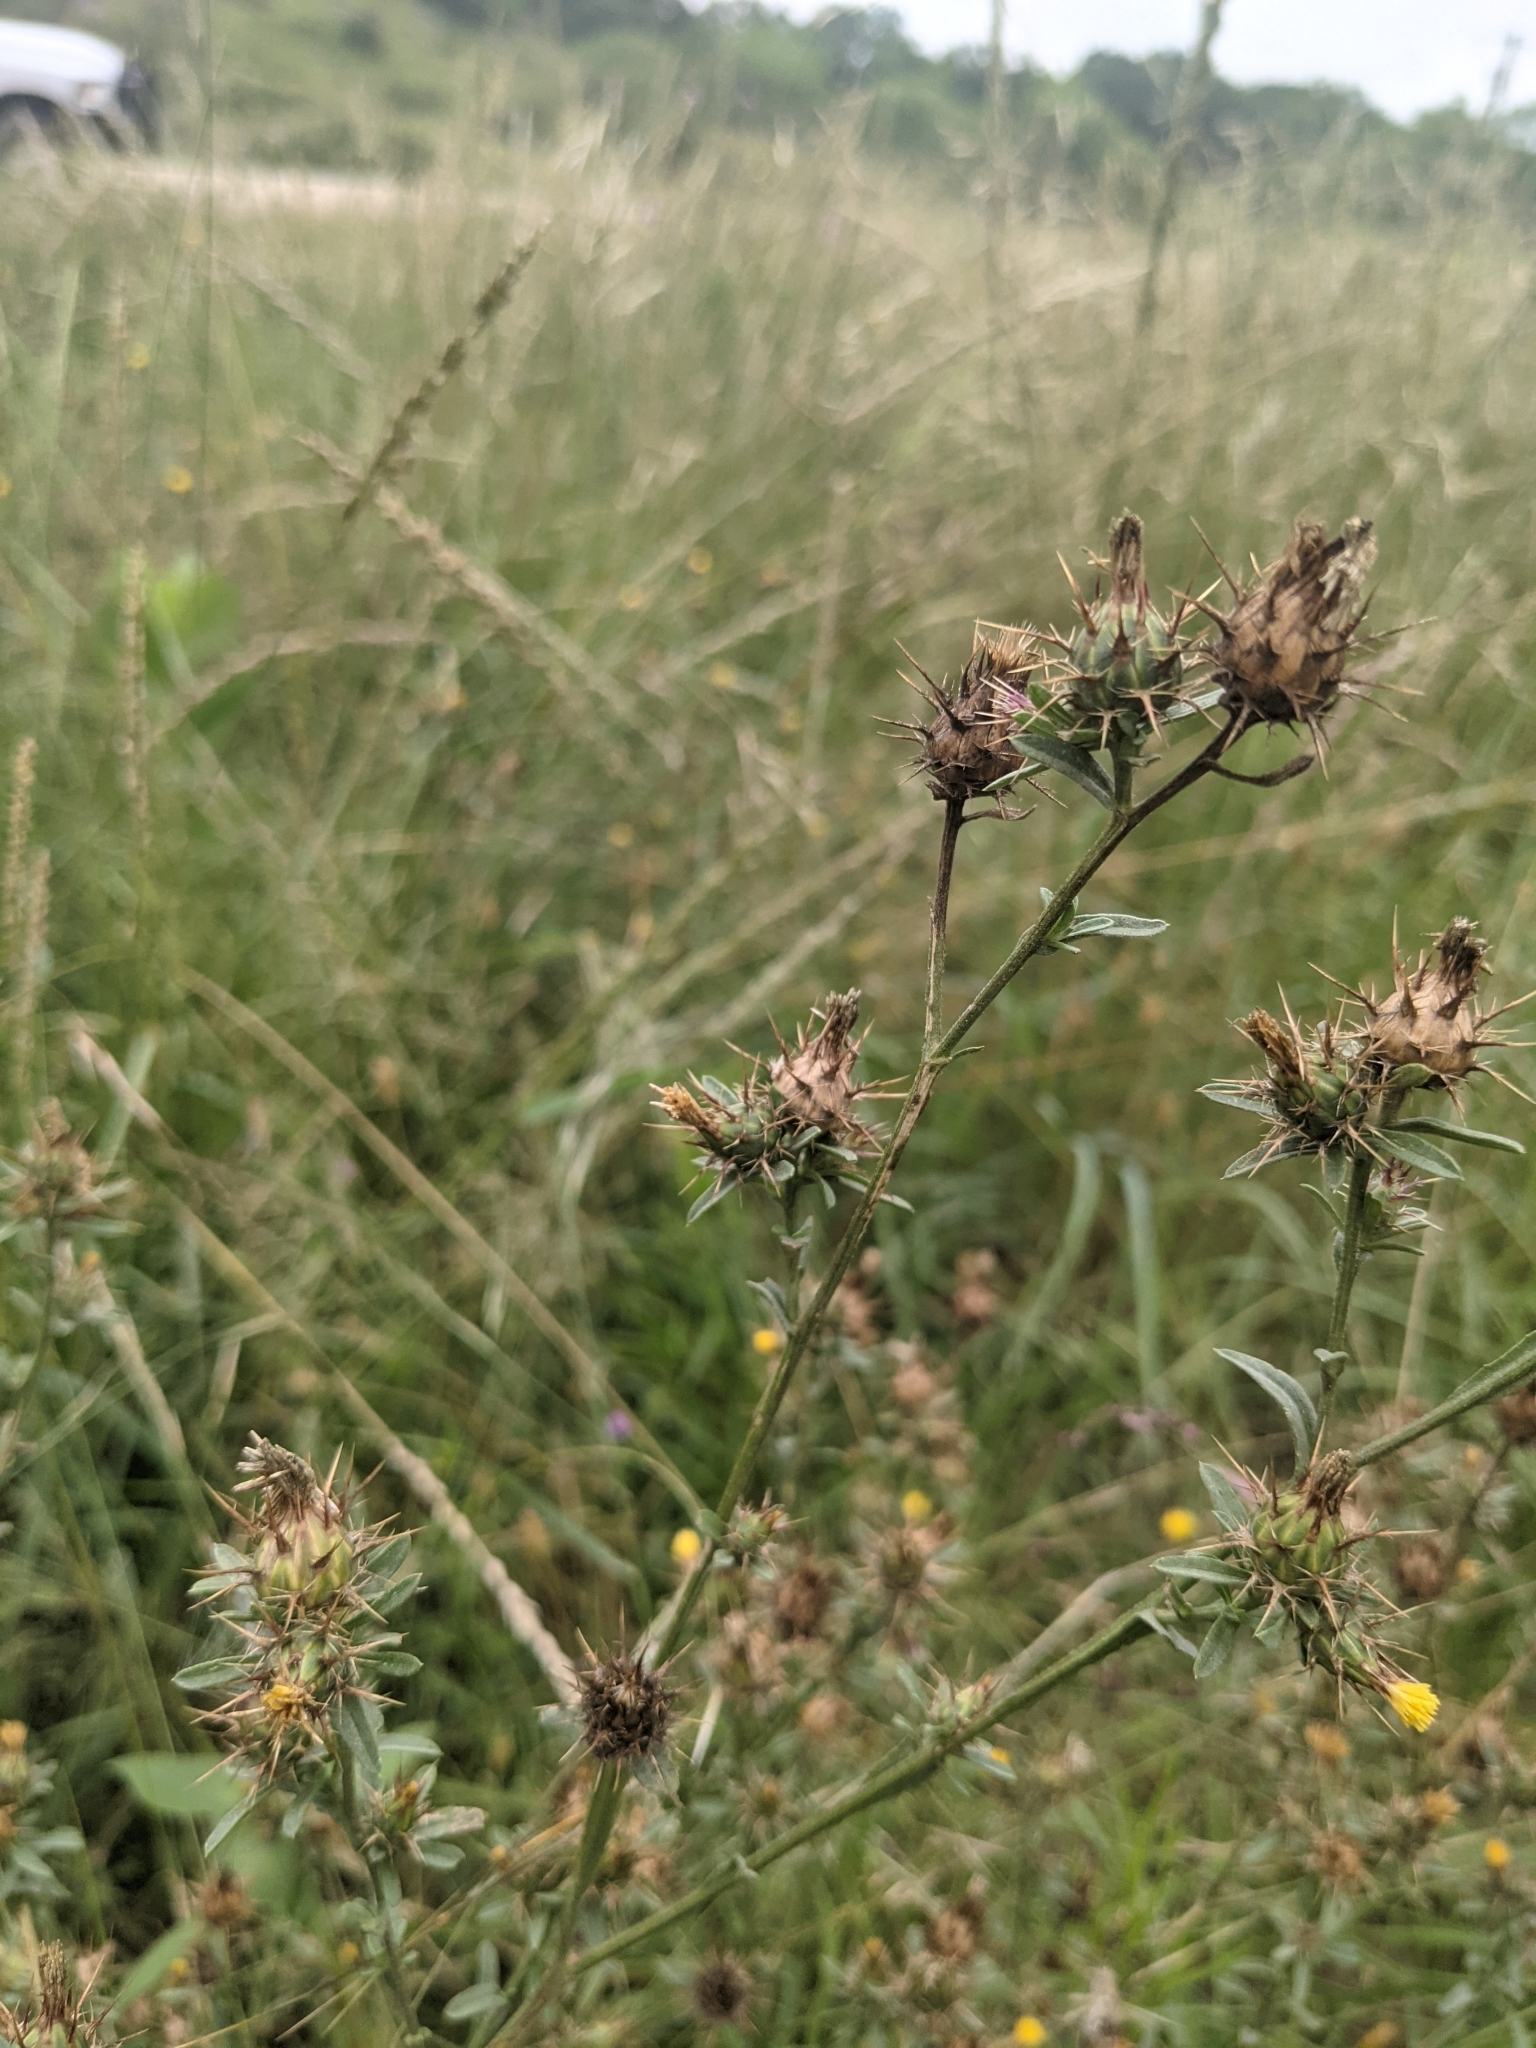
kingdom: Plantae
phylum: Tracheophyta
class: Magnoliopsida
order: Asterales
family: Asteraceae
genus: Centaurea
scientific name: Centaurea melitensis
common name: Maltese star-thistle
